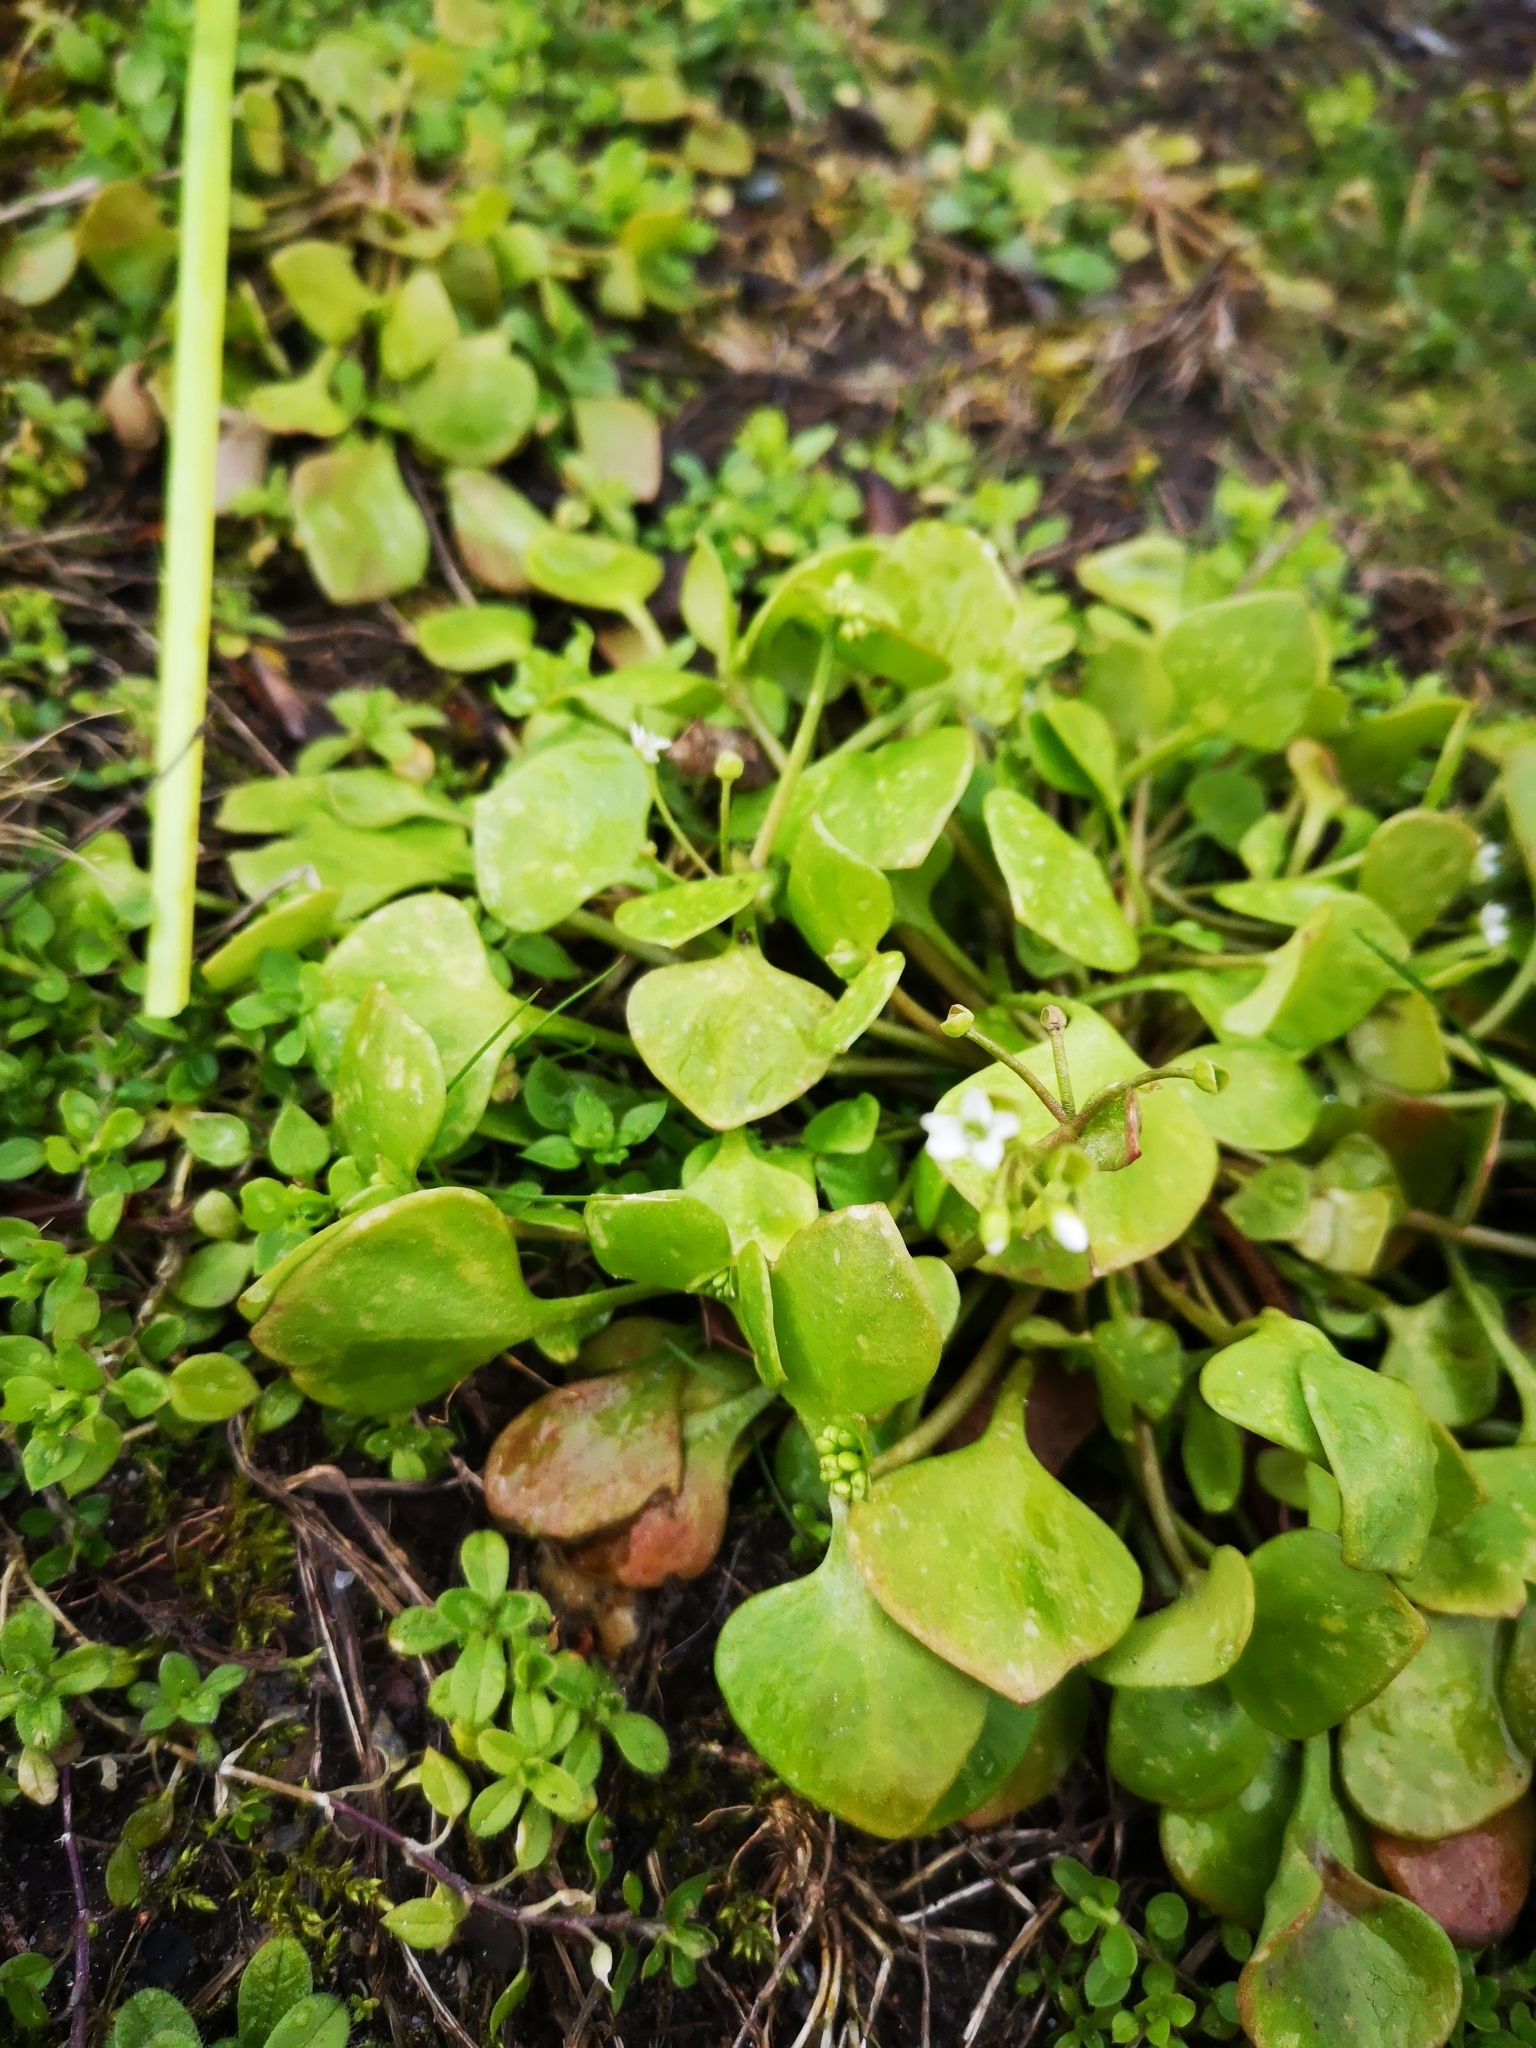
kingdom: Plantae
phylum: Tracheophyta
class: Magnoliopsida
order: Caryophyllales
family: Montiaceae
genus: Claytonia
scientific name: Claytonia perfoliata
